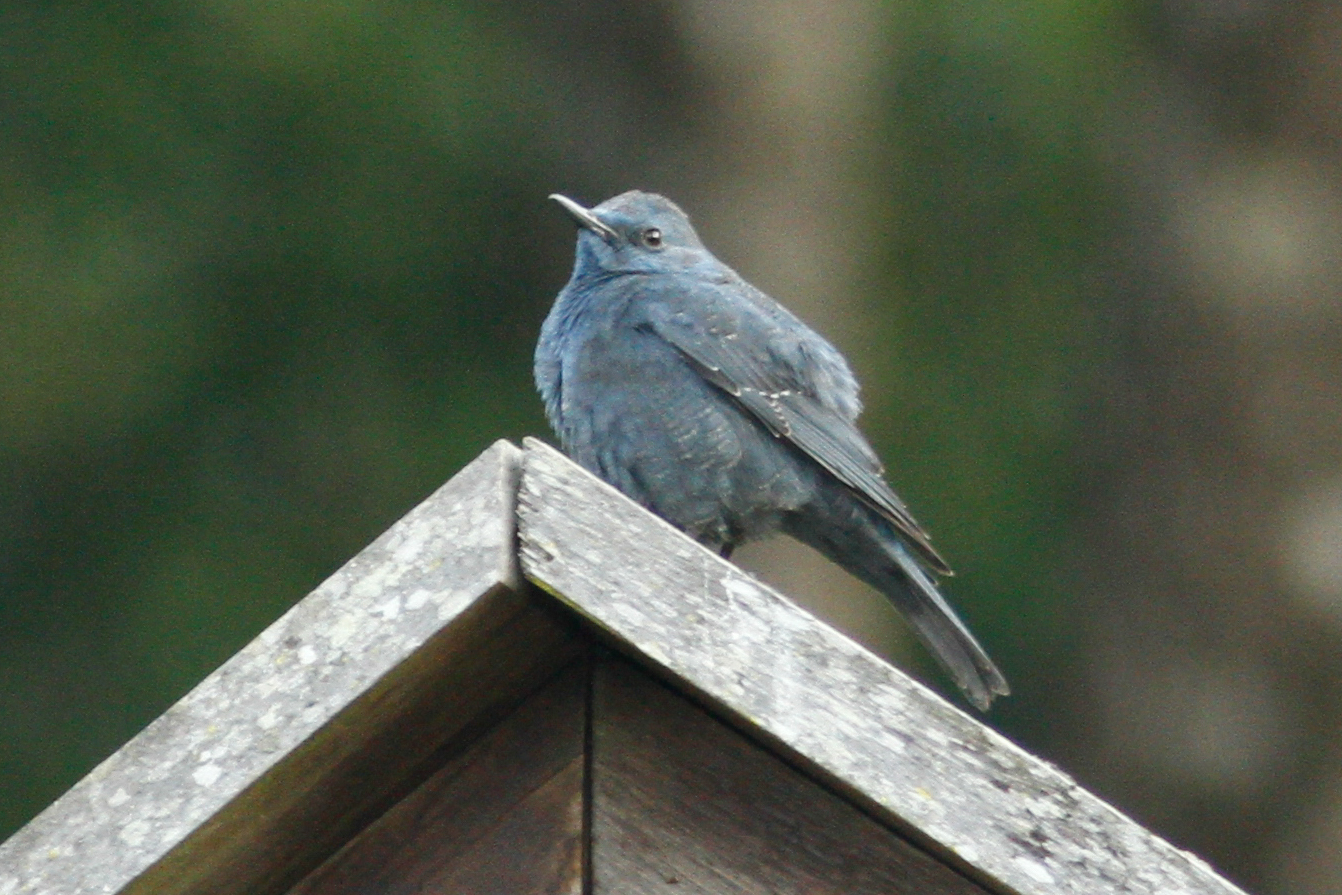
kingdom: Animalia
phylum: Chordata
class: Aves
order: Passeriformes
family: Muscicapidae
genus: Monticola
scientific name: Monticola solitarius
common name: Blue rock thrush
